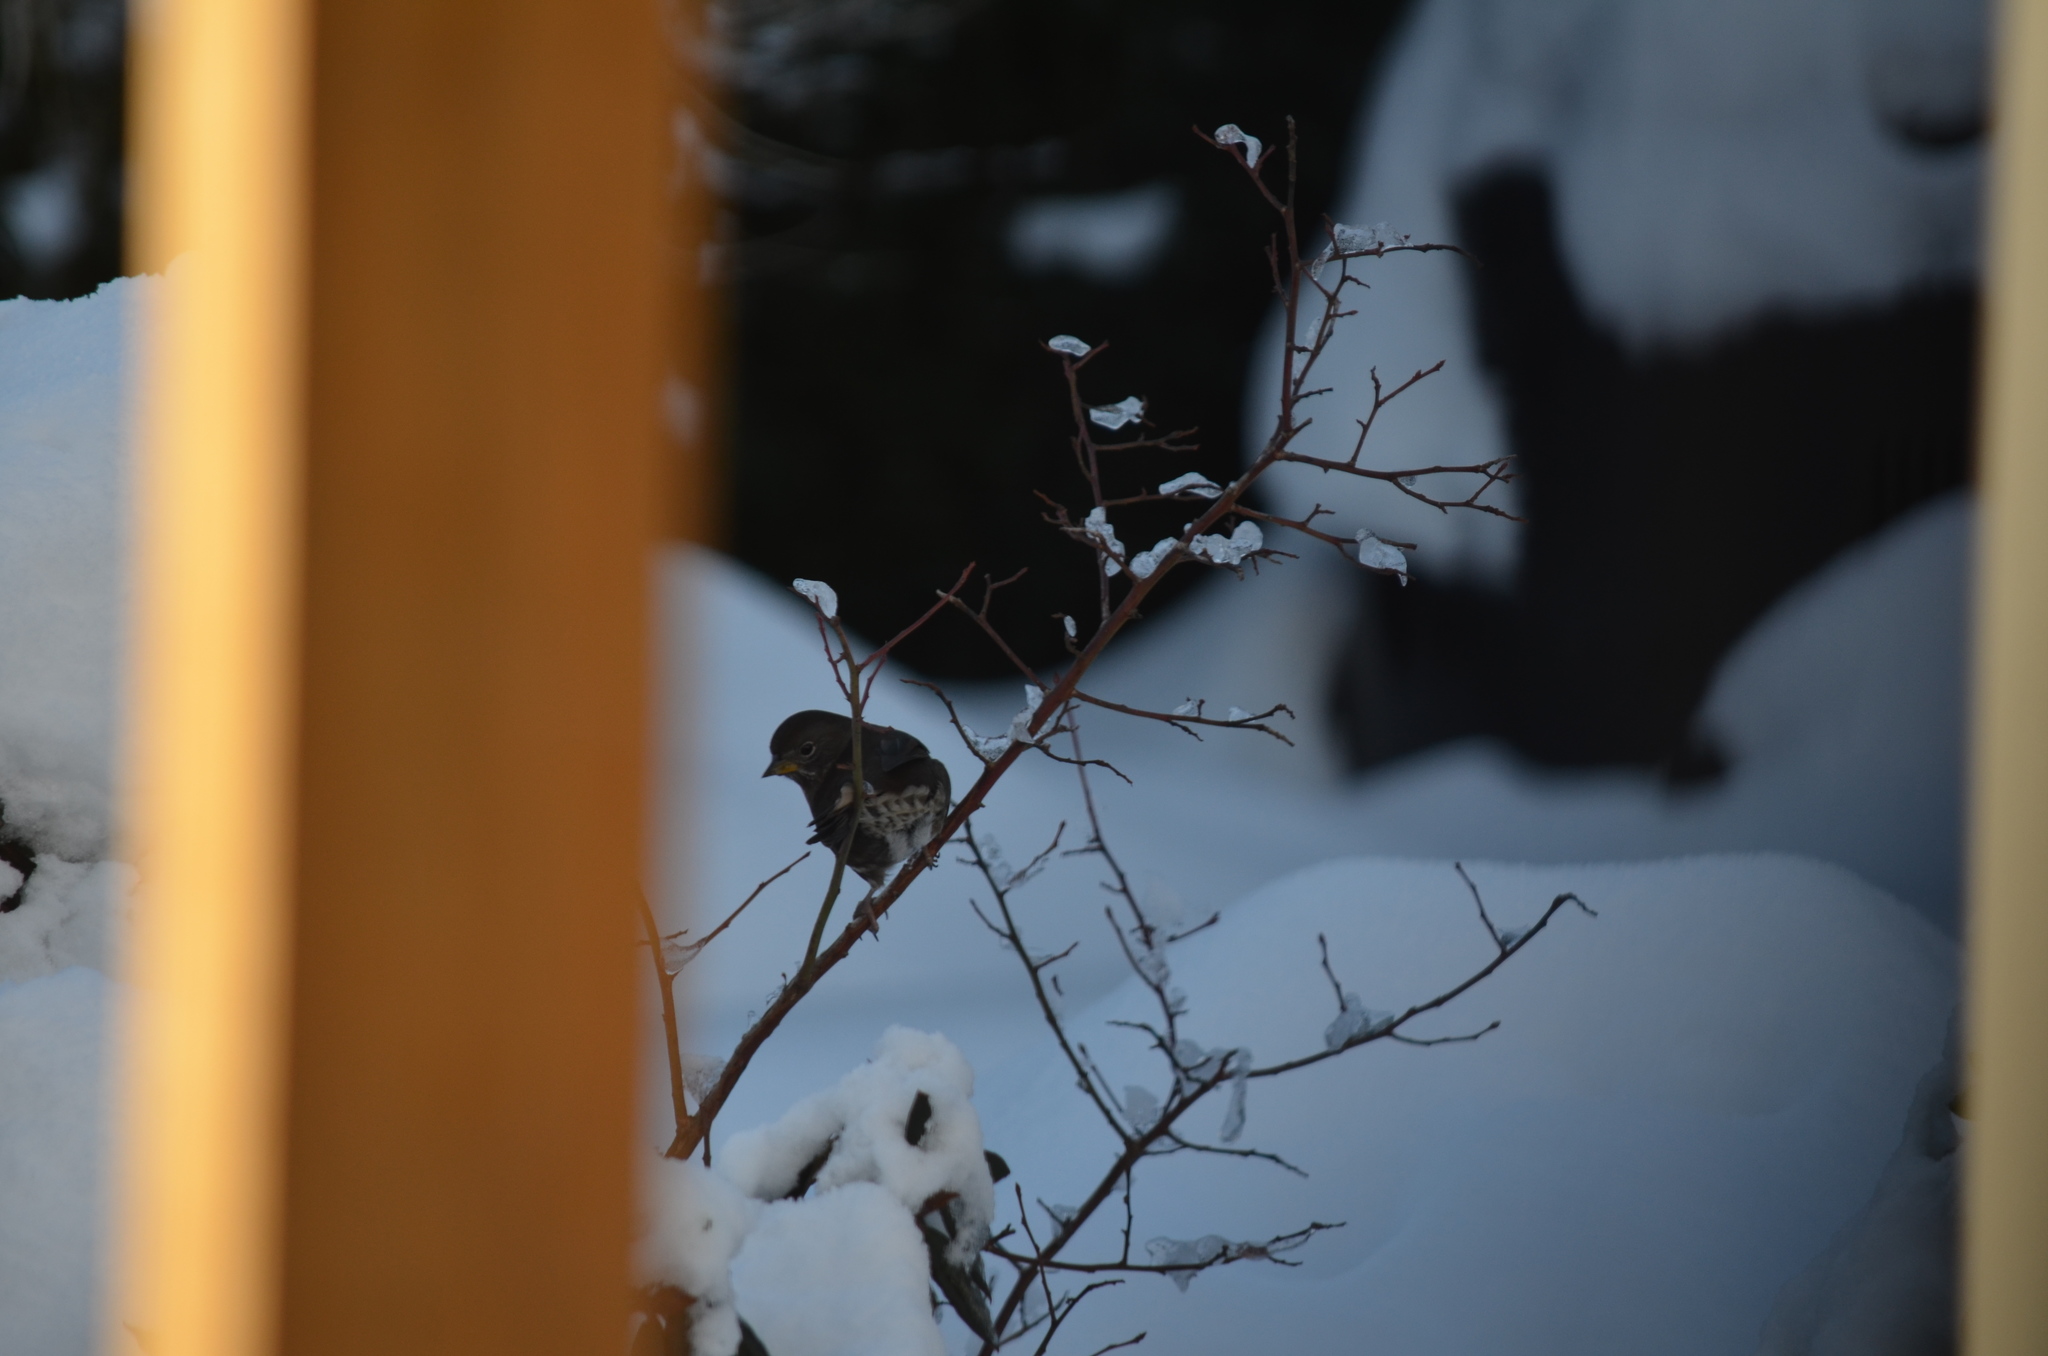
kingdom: Animalia
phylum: Chordata
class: Aves
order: Passeriformes
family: Passerellidae
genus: Passerella
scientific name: Passerella iliaca
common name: Fox sparrow
